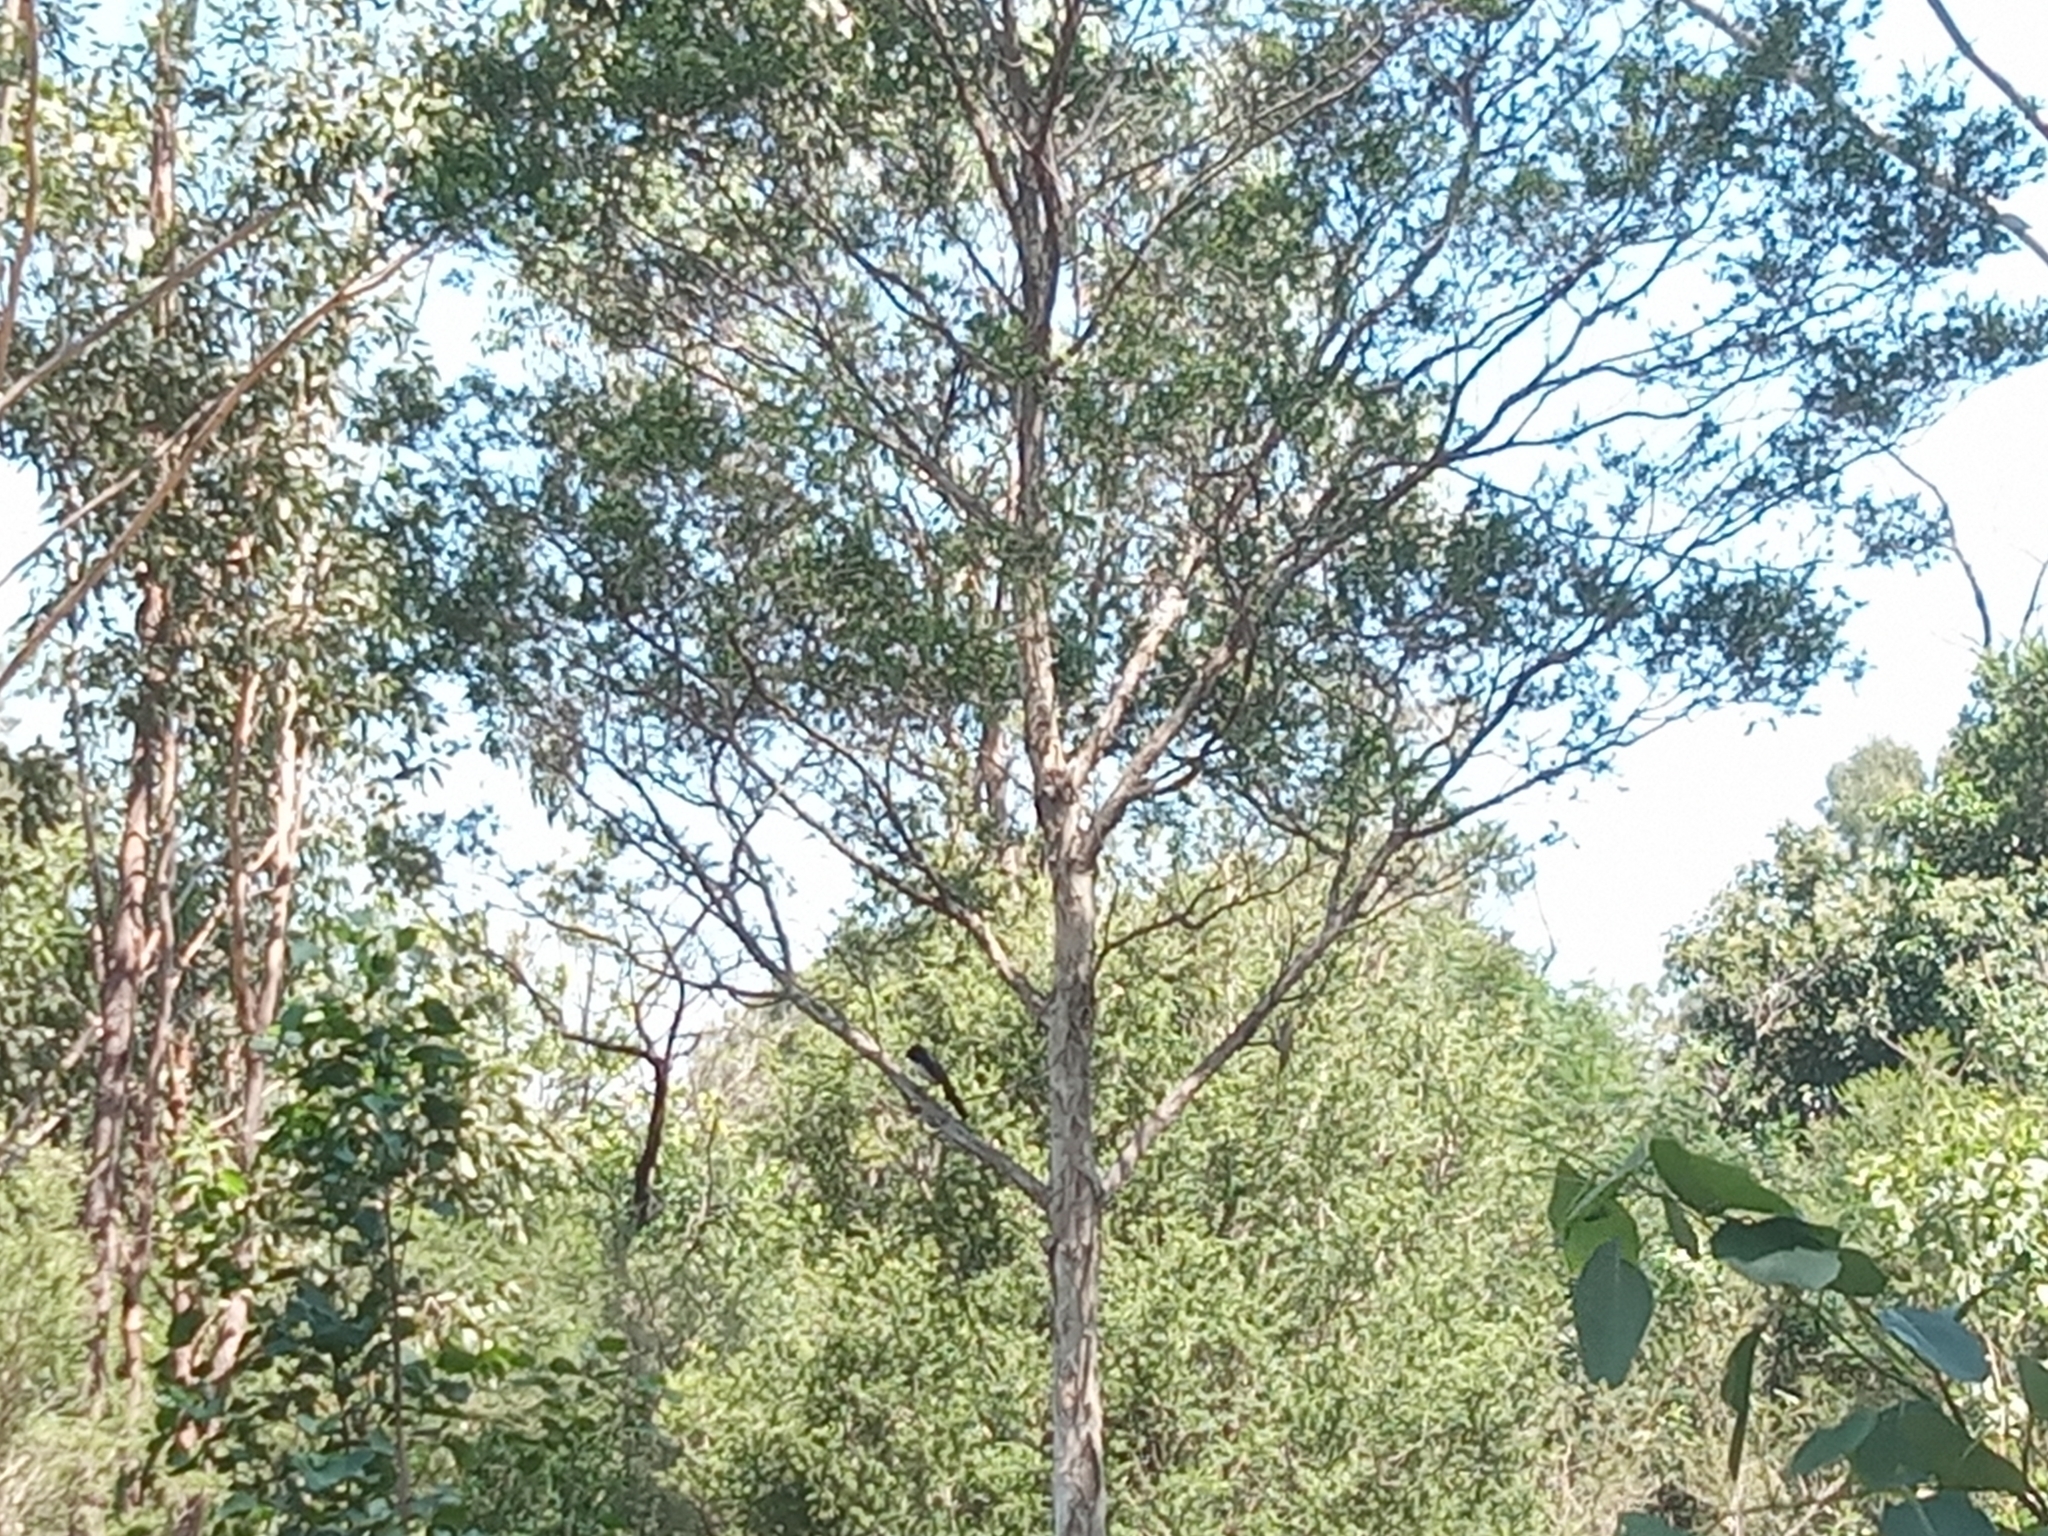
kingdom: Animalia
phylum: Chordata
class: Aves
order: Passeriformes
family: Rhipiduridae
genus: Rhipidura
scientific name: Rhipidura leucophrys
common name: Willie wagtail
